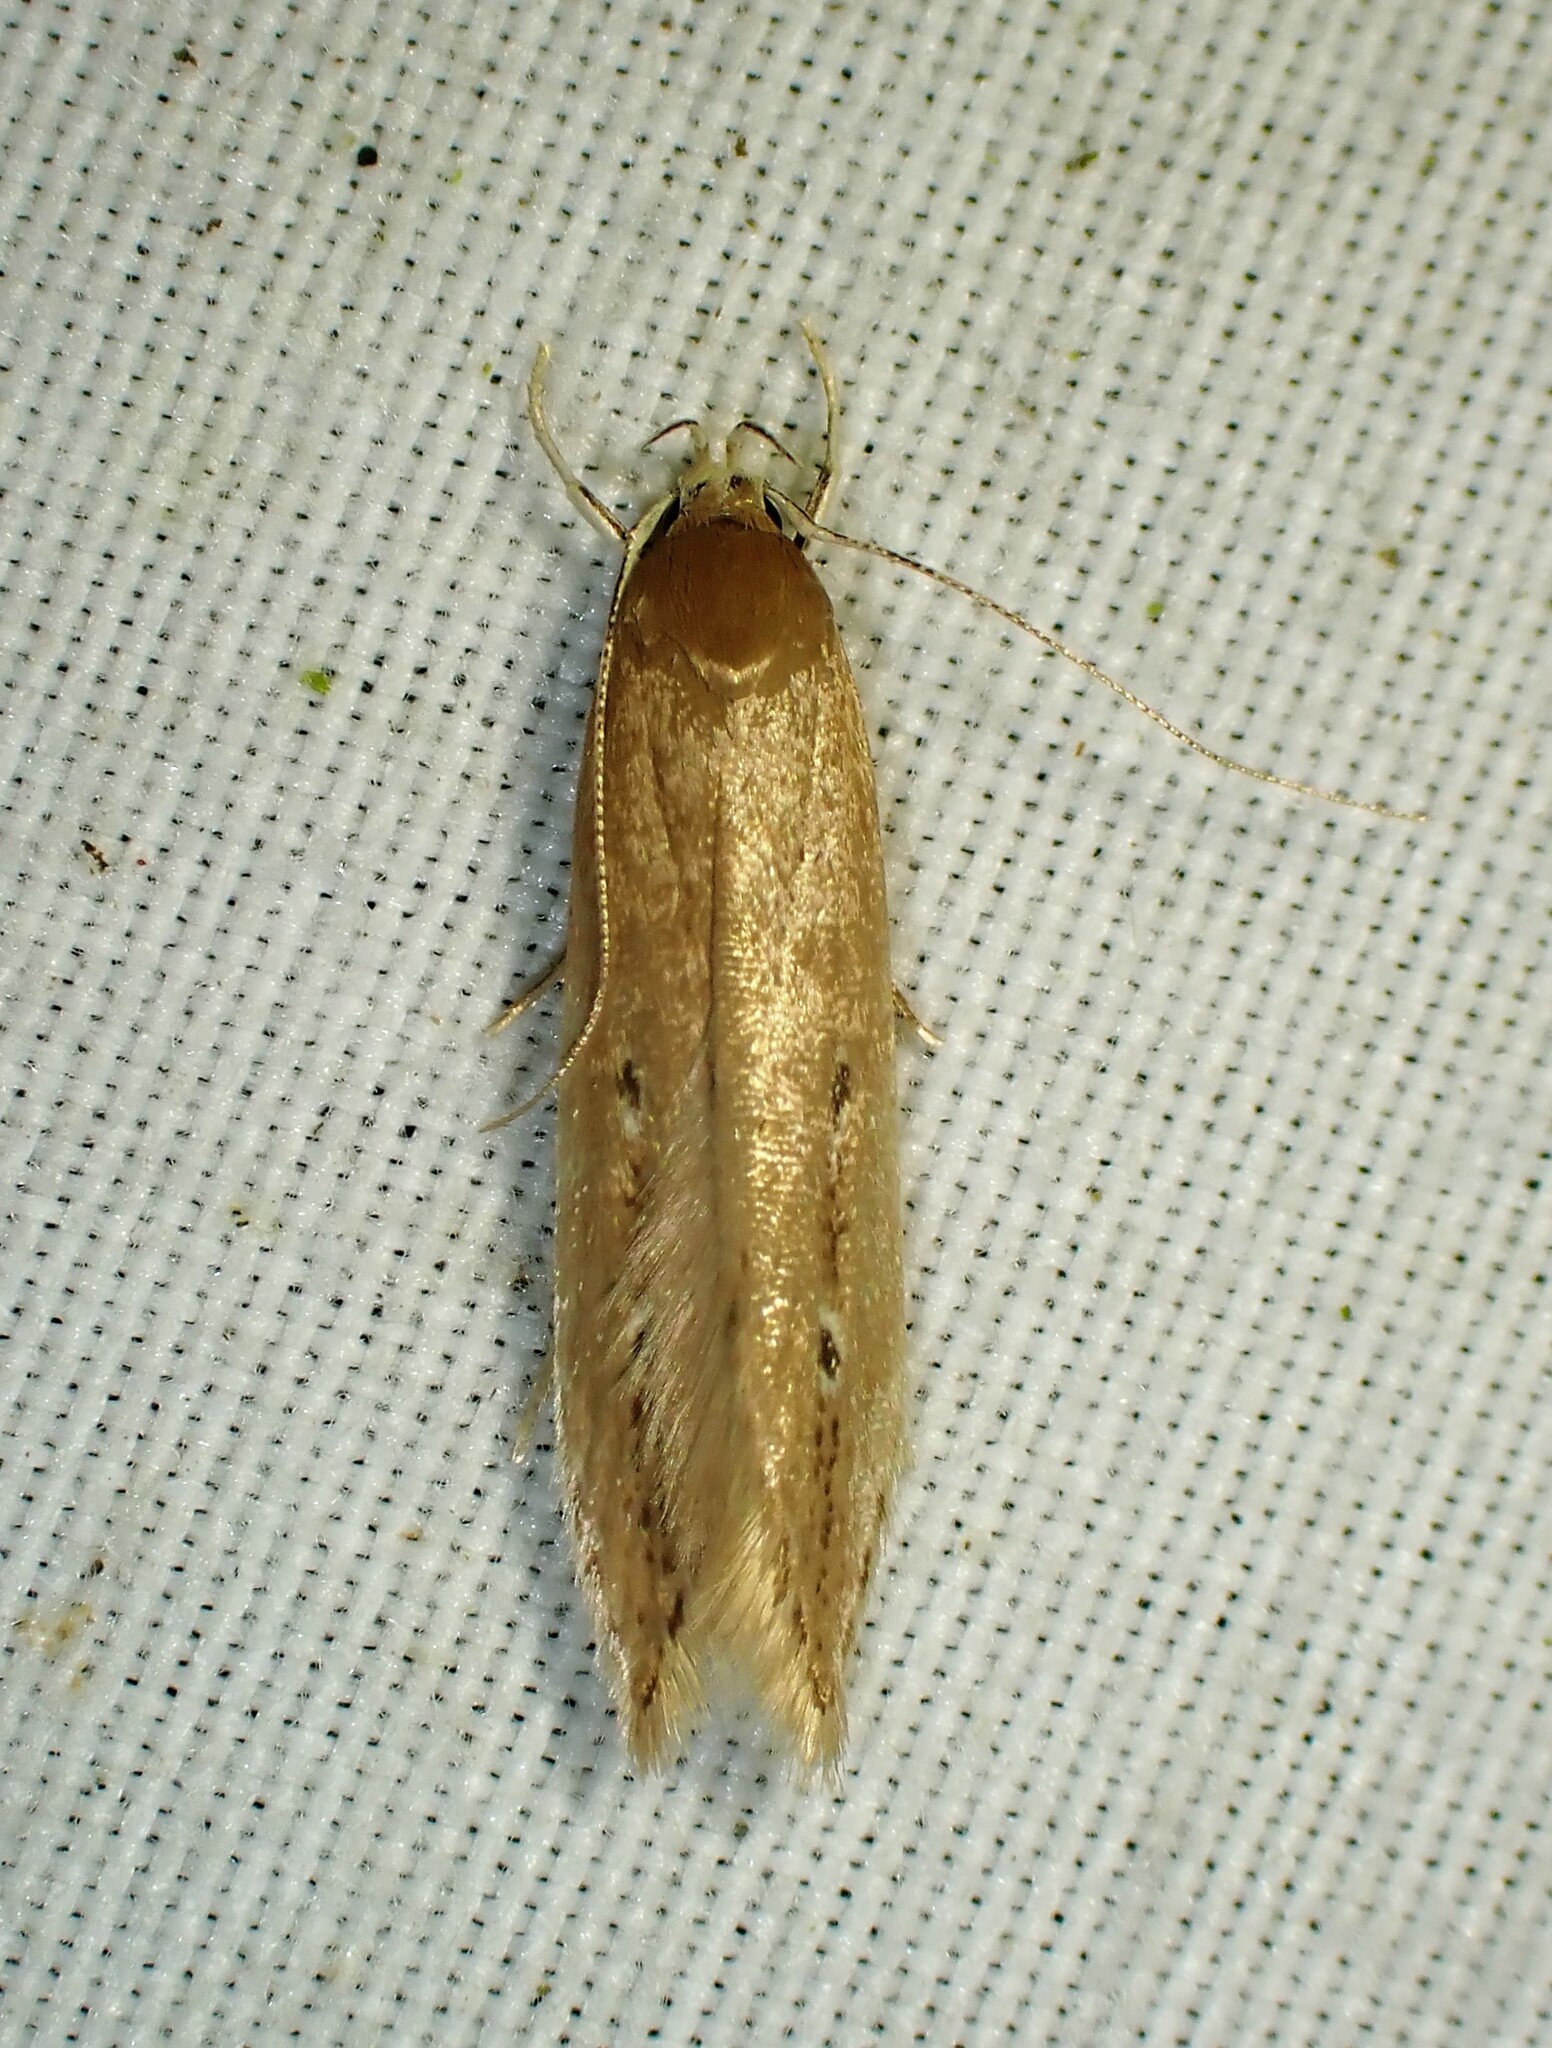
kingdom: Animalia
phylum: Arthropoda
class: Insecta
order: Lepidoptera
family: Cosmopterigidae
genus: Limnaecia
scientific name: Limnaecia phragmitella
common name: Bulrush cosmet
